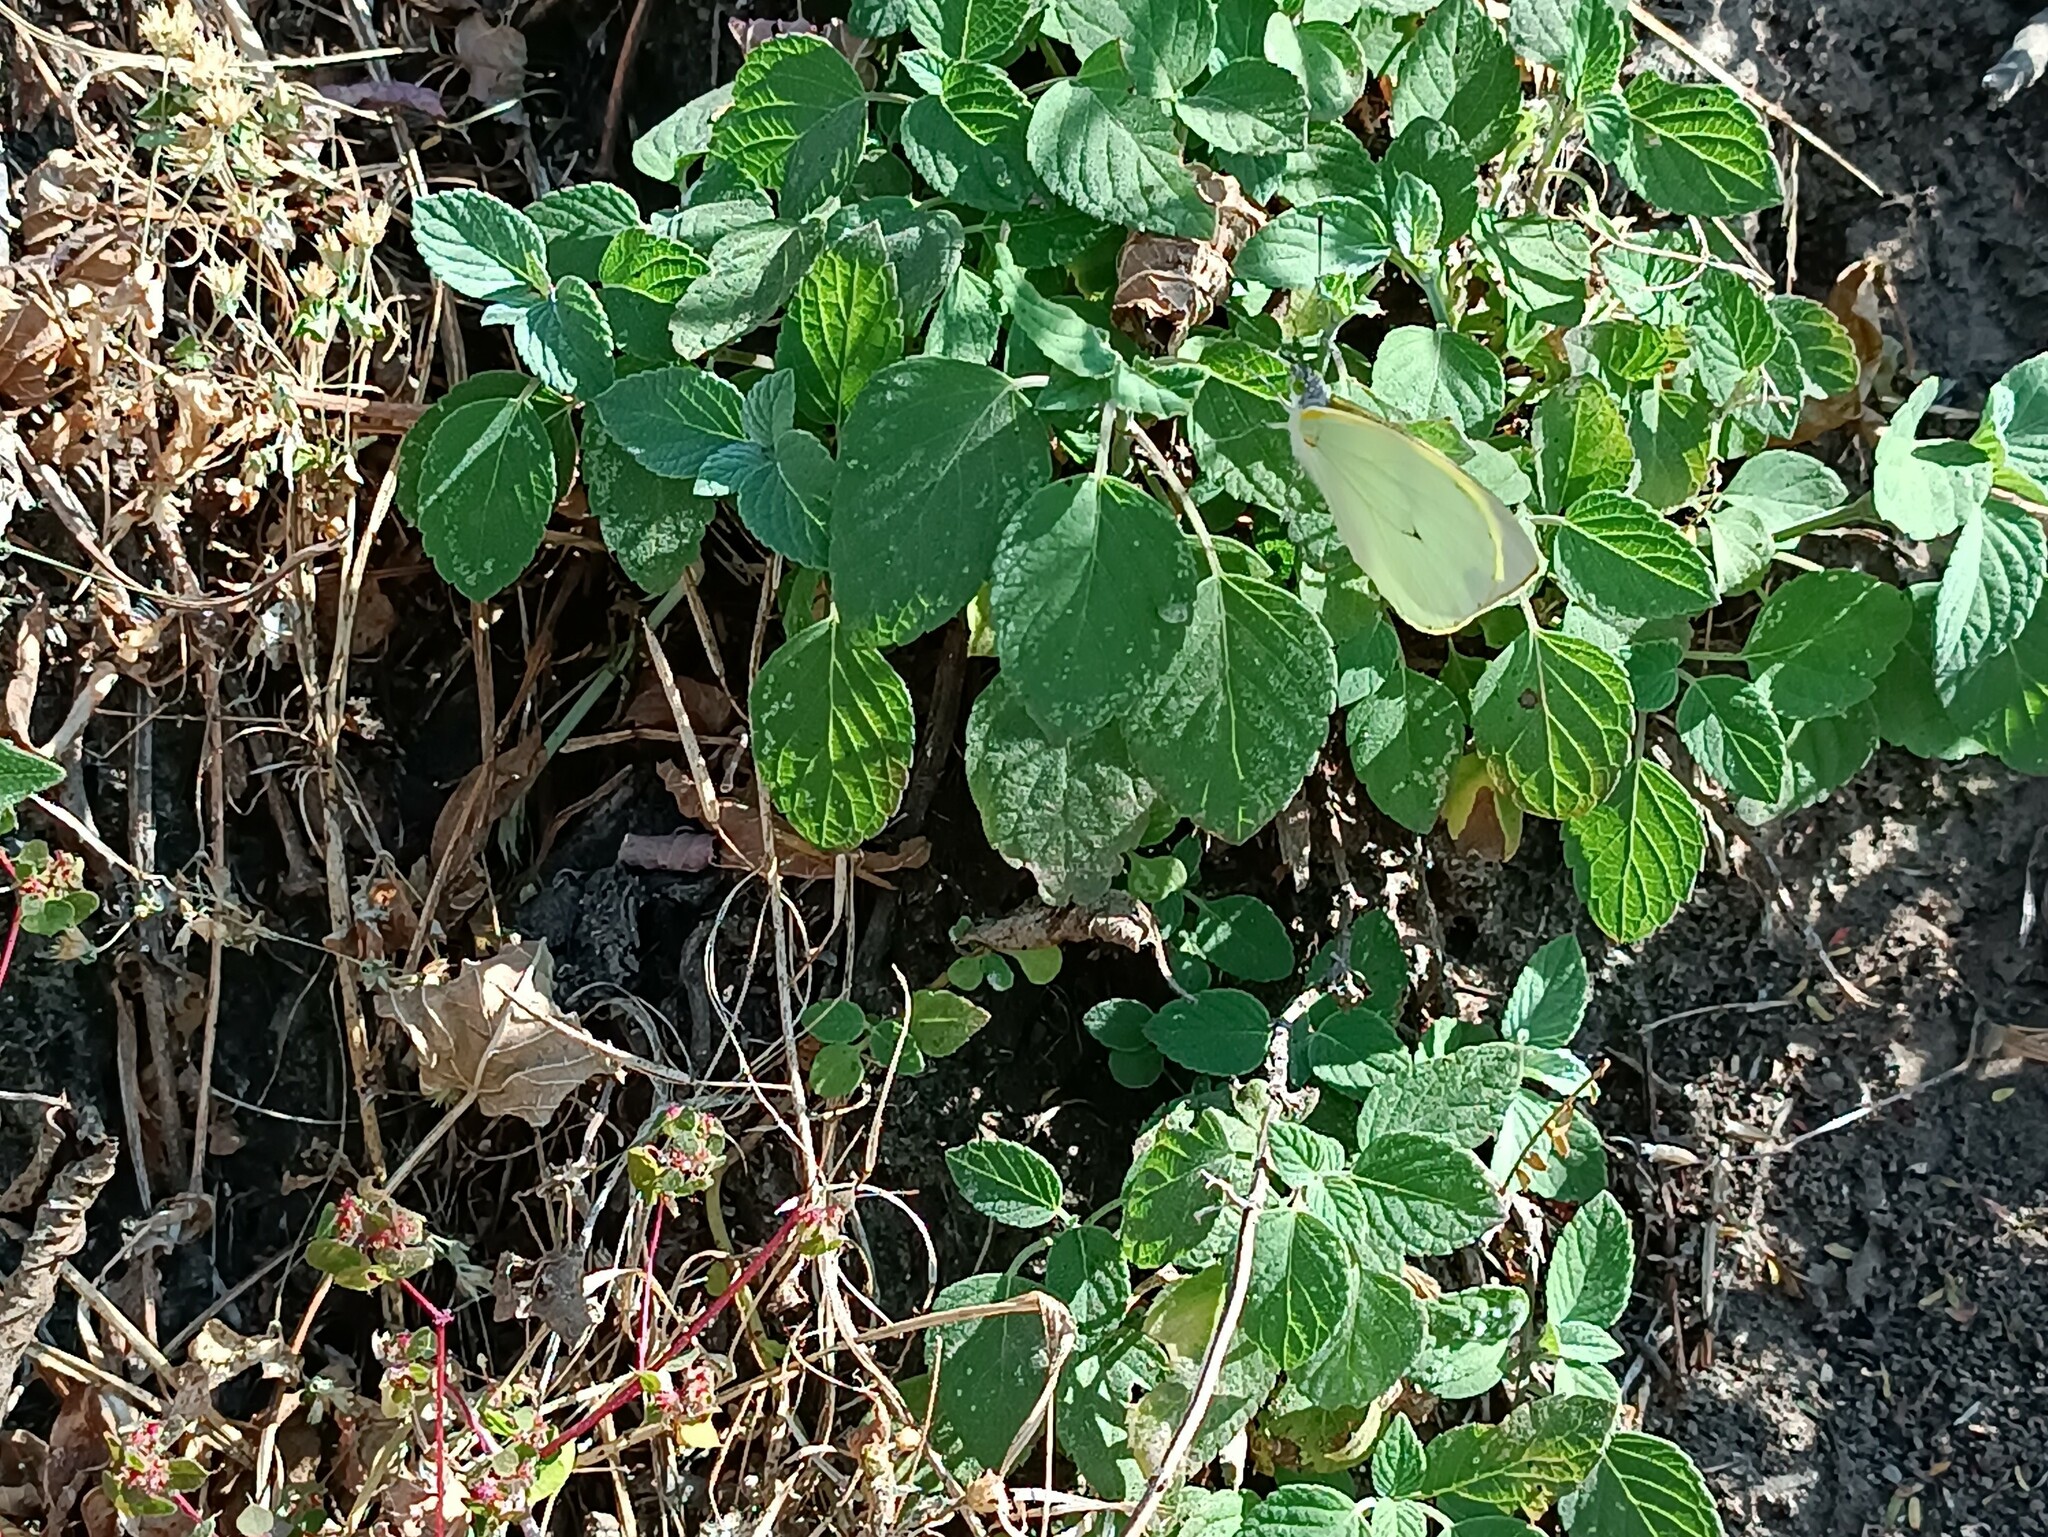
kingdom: Animalia
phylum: Arthropoda
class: Insecta
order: Lepidoptera
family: Pieridae
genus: Leptophobia
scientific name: Leptophobia aripa
